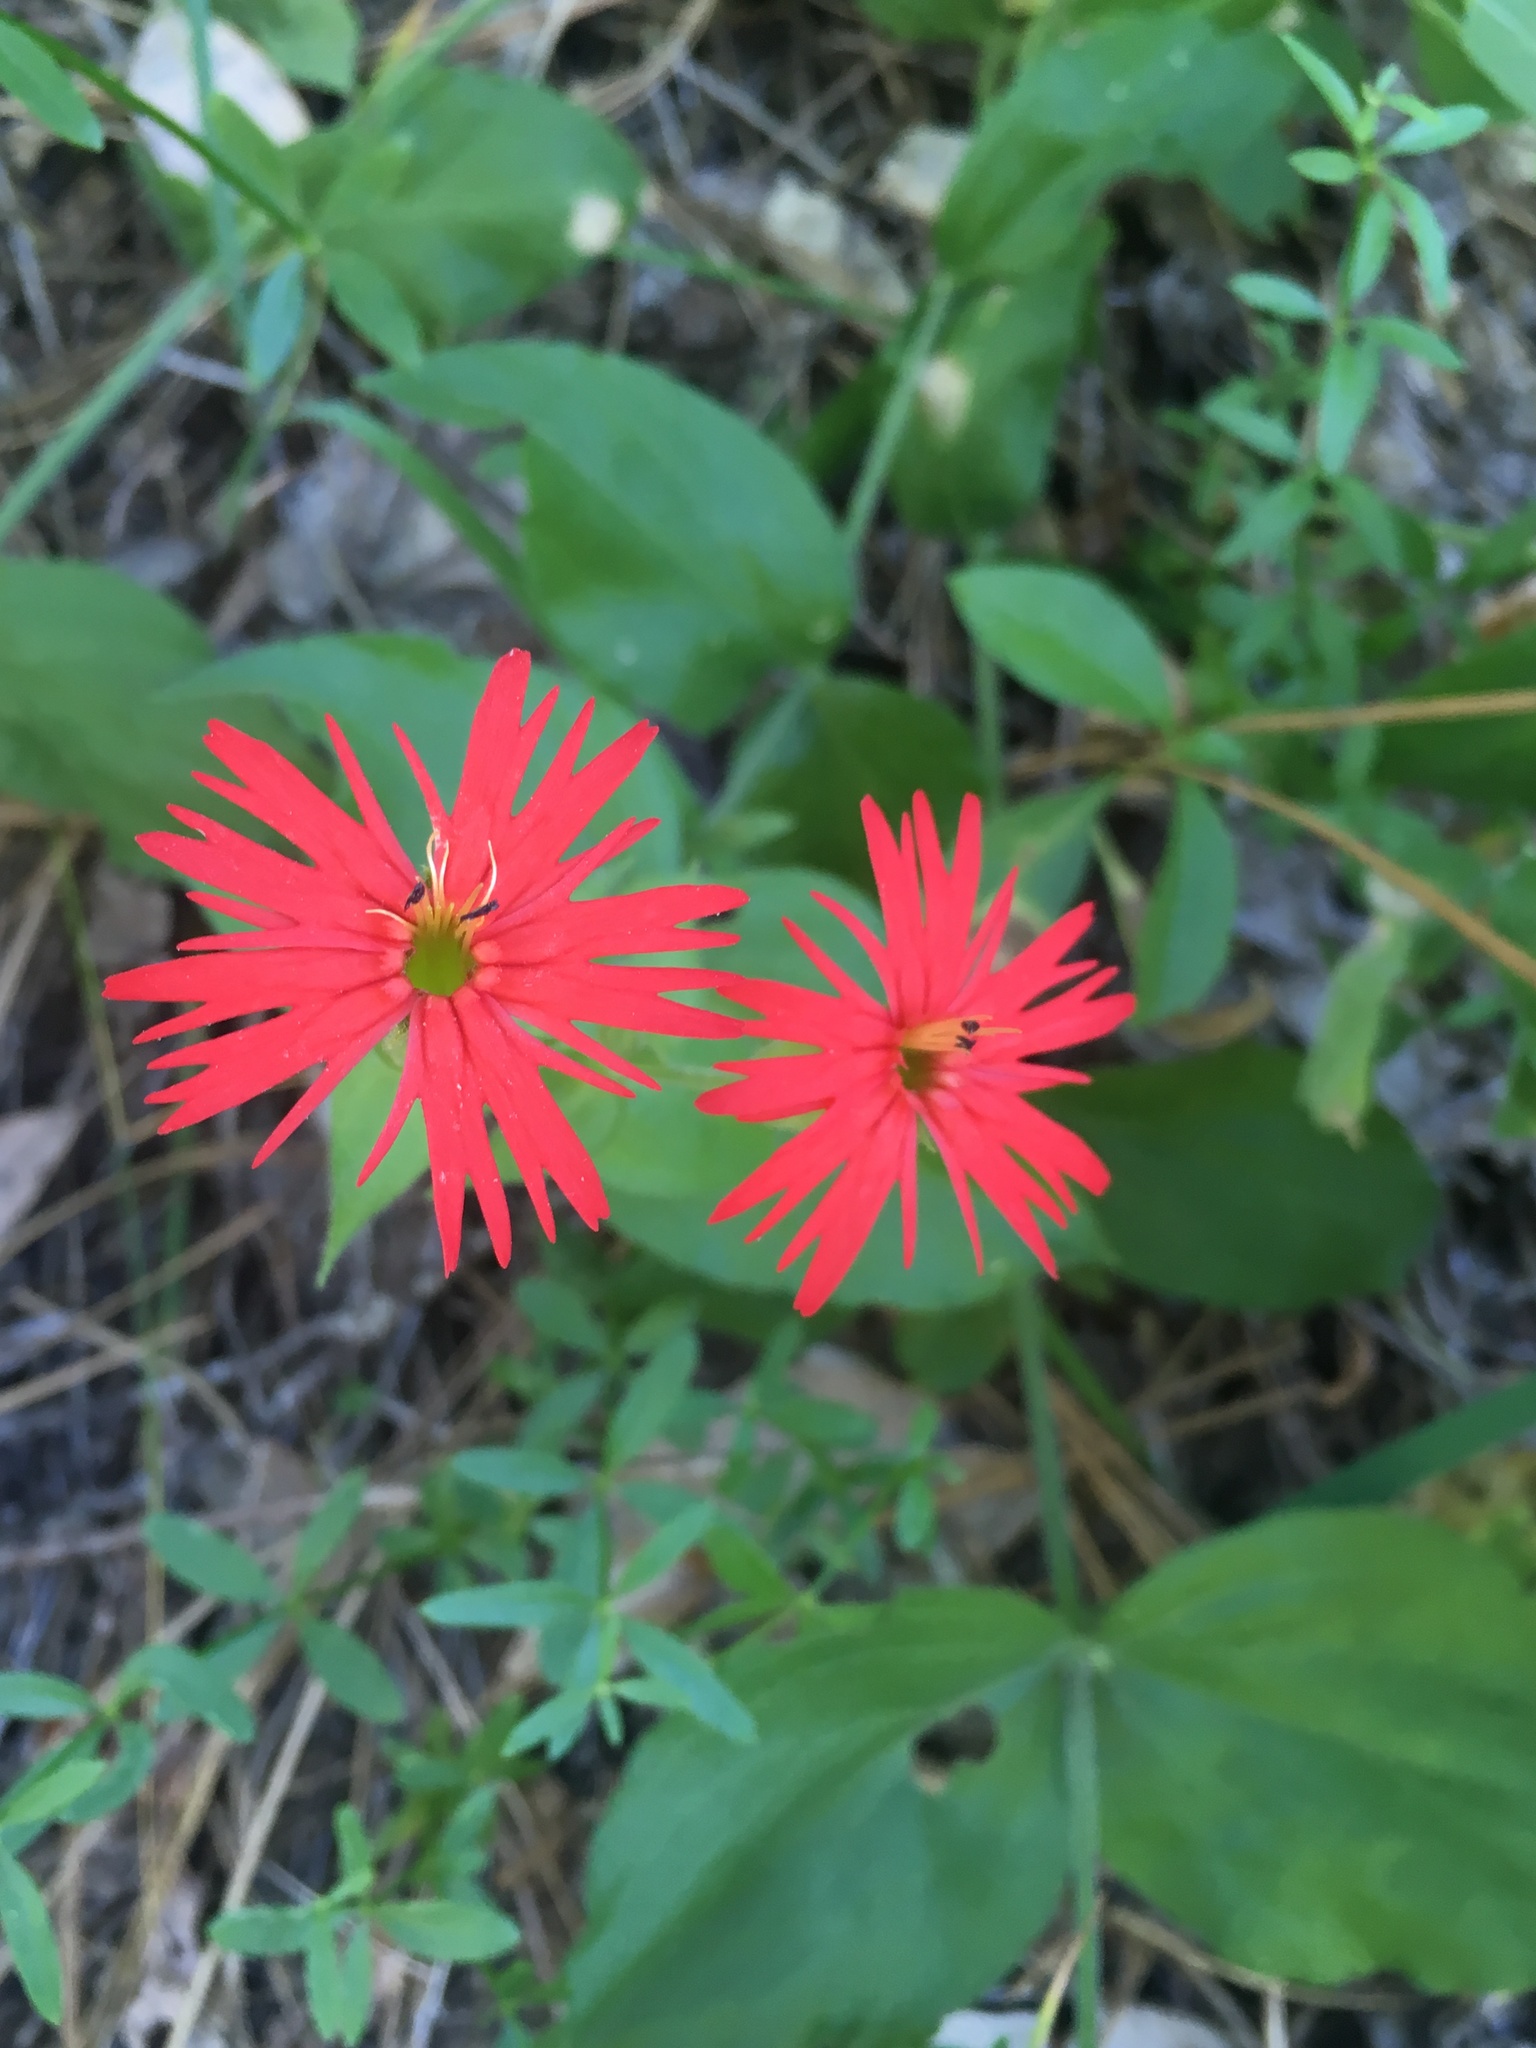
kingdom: Plantae
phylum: Tracheophyta
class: Magnoliopsida
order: Caryophyllales
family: Caryophyllaceae
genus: Silene
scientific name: Silene laciniata
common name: Indian-pink
